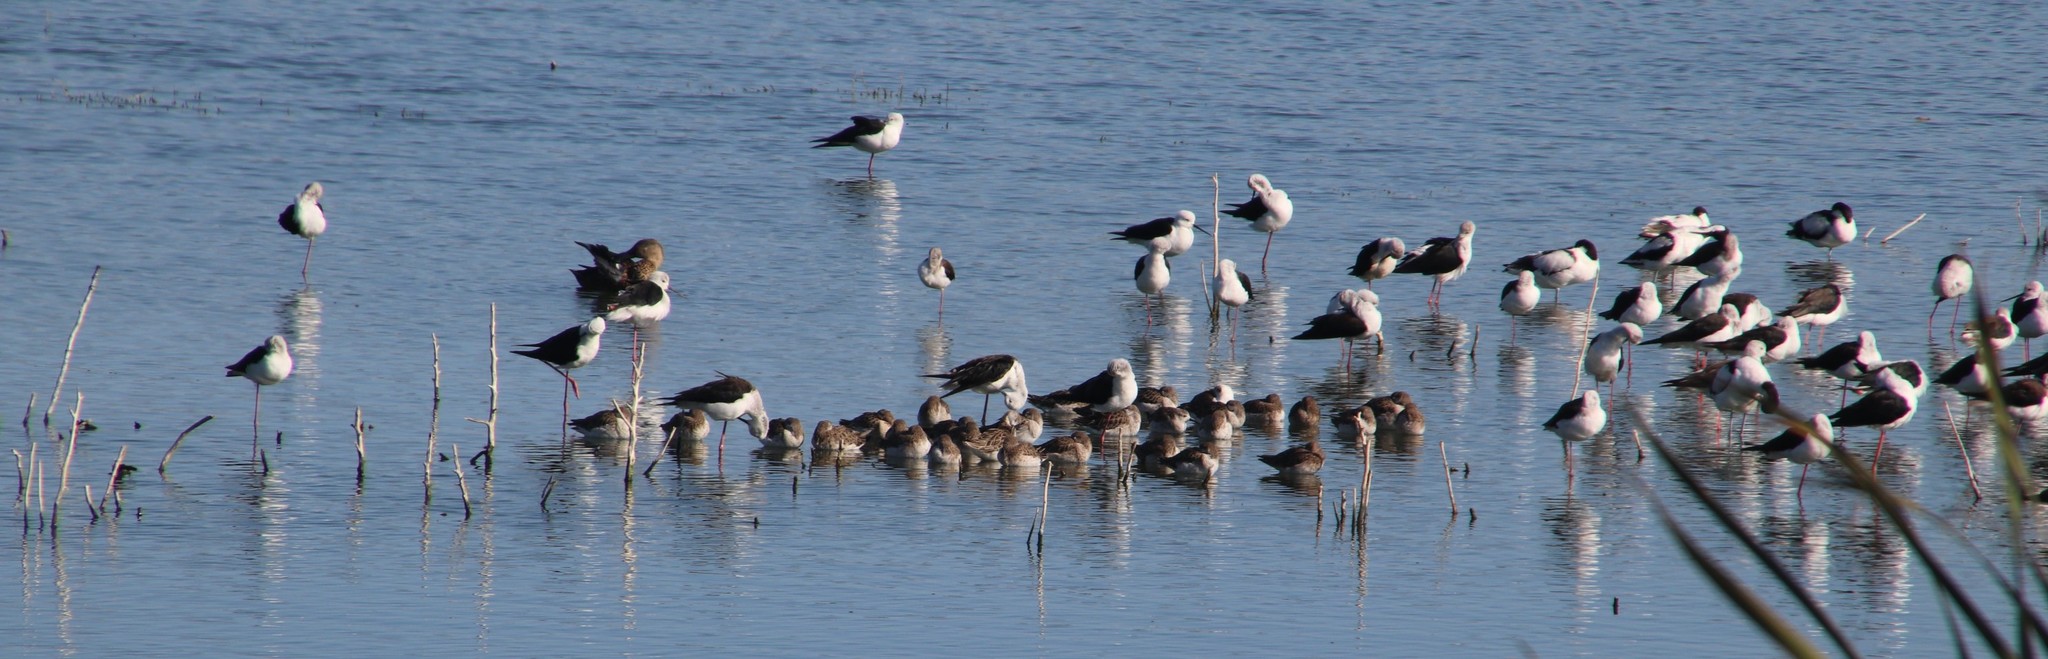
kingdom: Animalia
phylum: Chordata
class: Aves
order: Charadriiformes
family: Scolopacidae
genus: Calidris
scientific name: Calidris minuta
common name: Little stint
